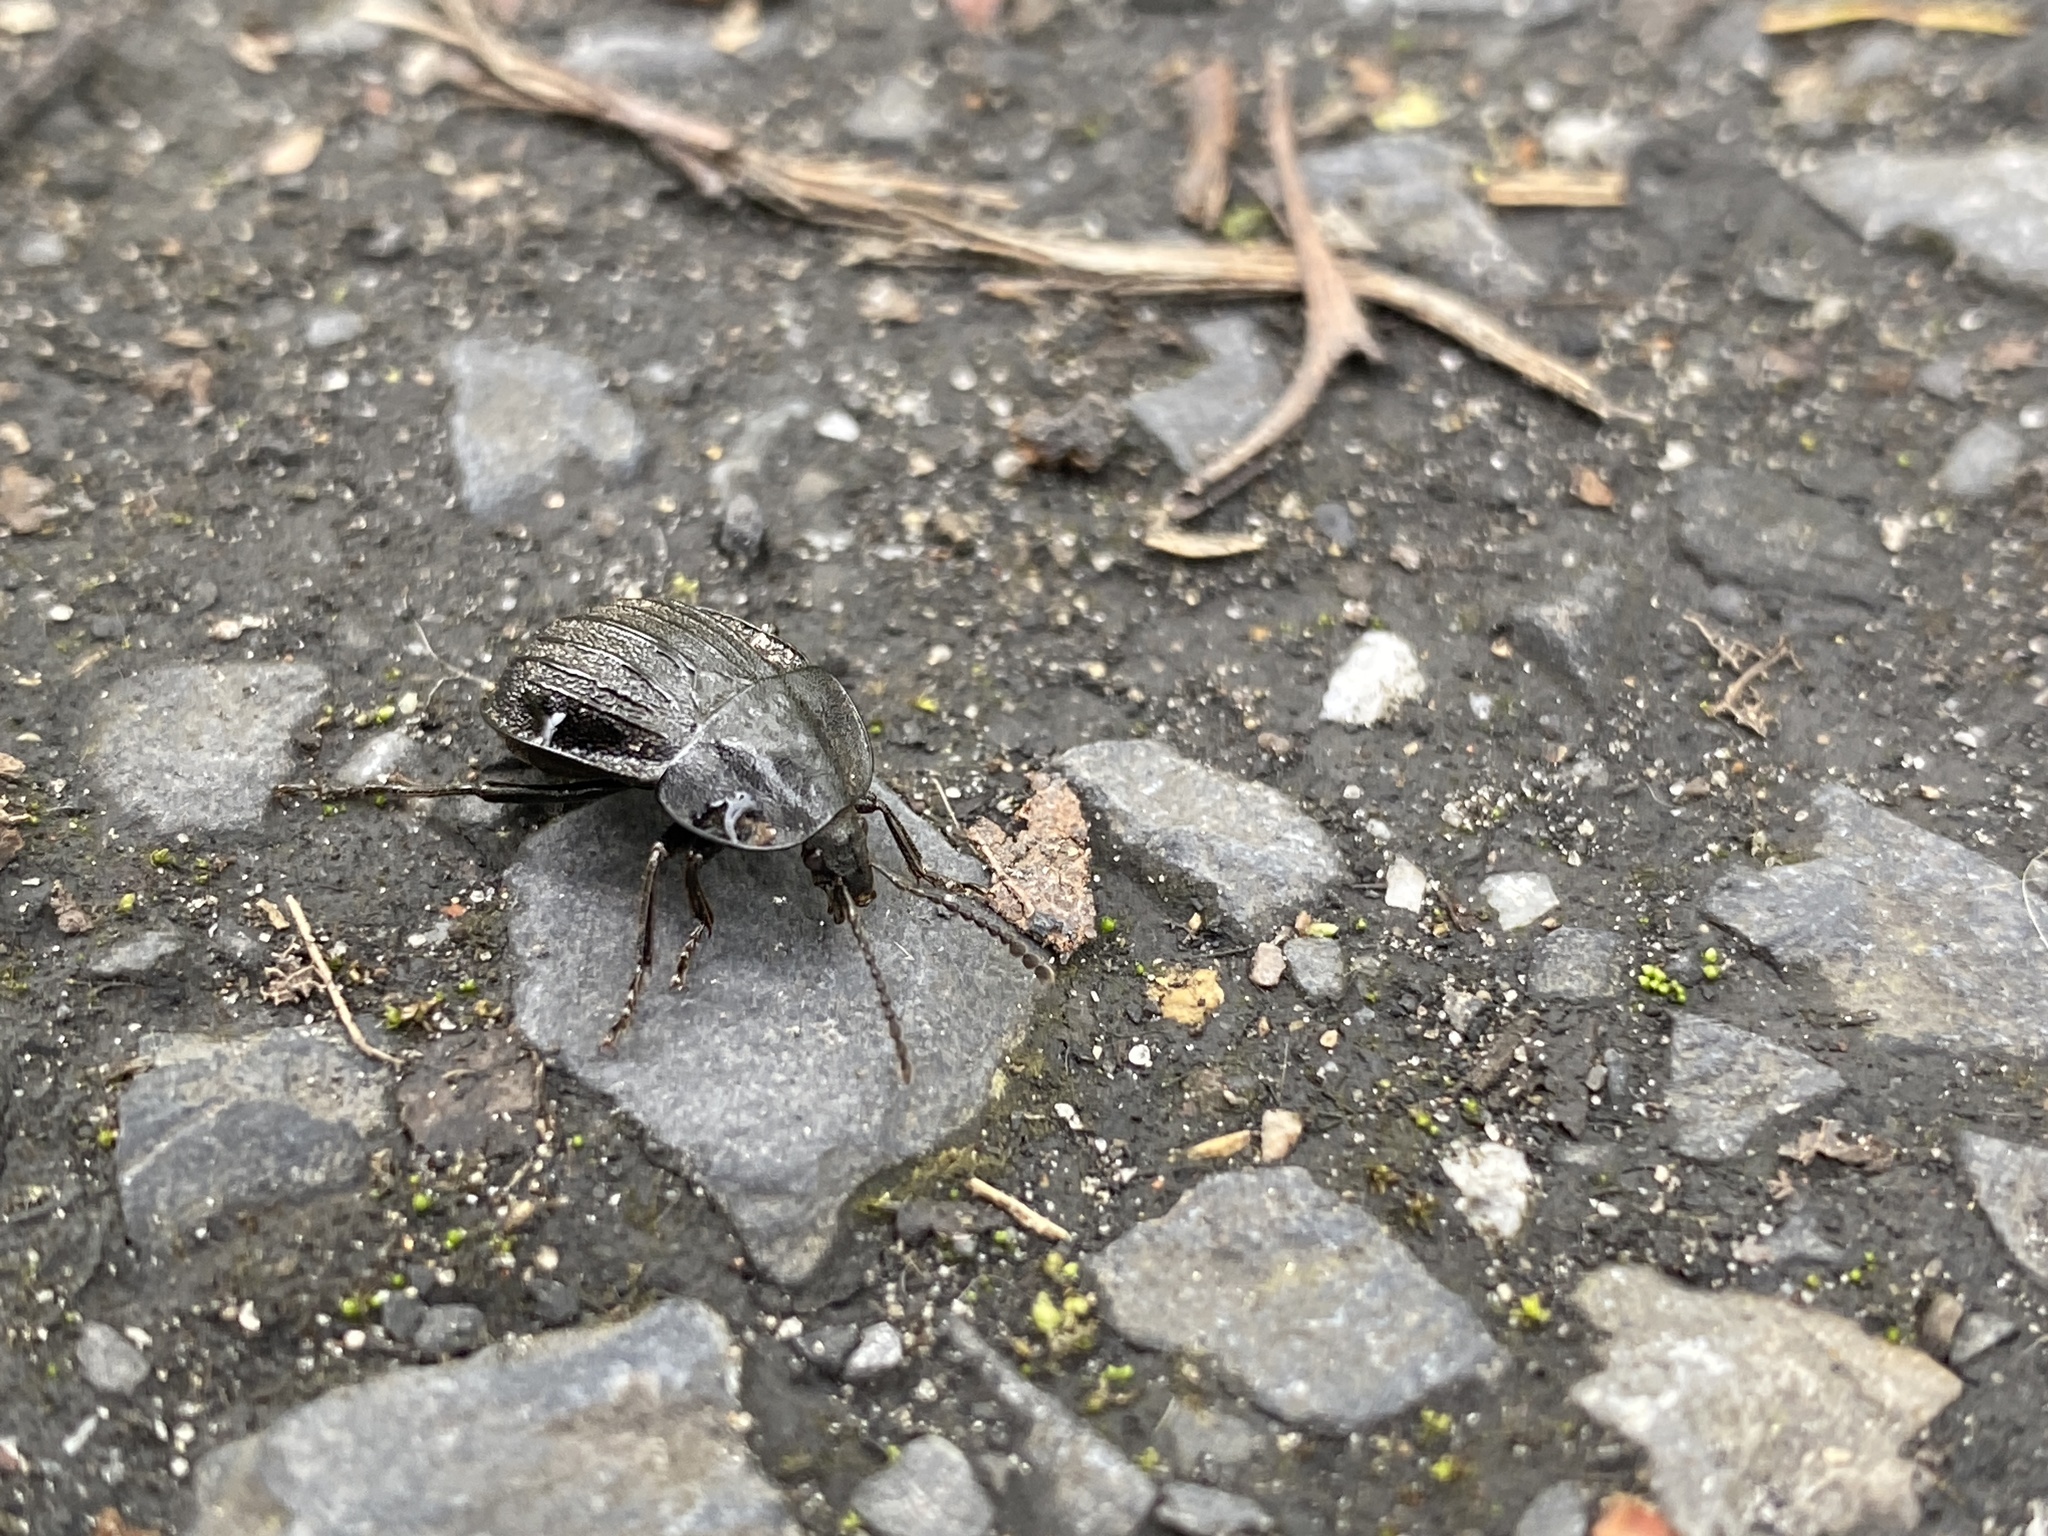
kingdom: Animalia
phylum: Arthropoda
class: Insecta
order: Coleoptera
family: Staphylinidae
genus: Silpha
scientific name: Silpha atrata
